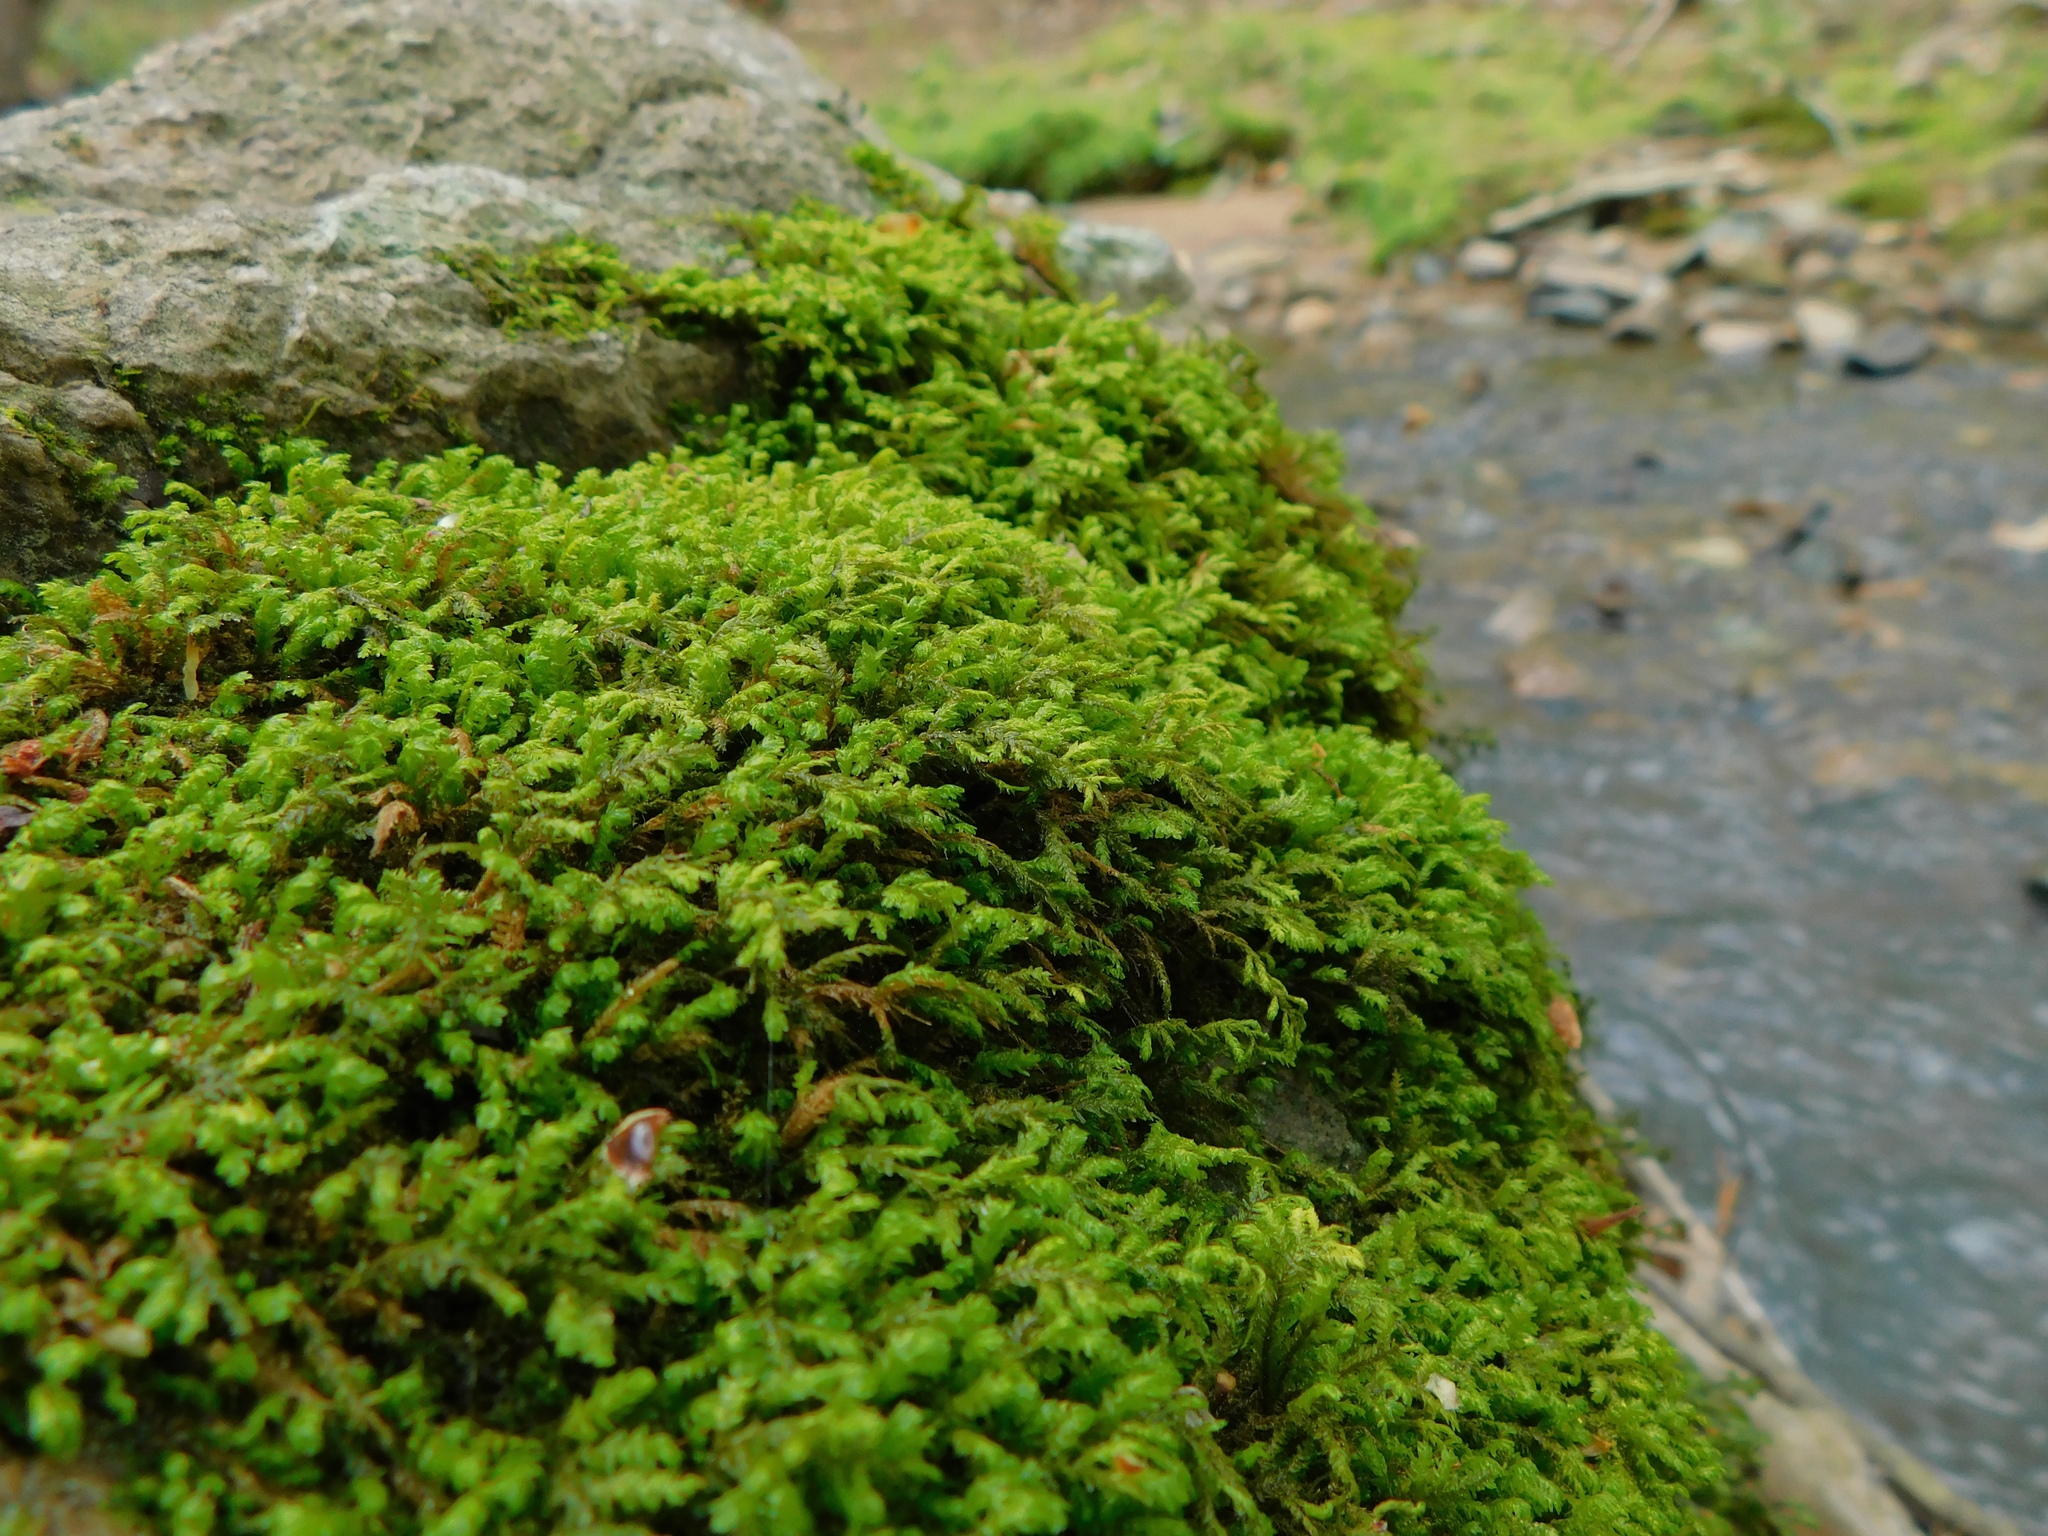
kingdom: Plantae
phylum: Bryophyta
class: Bryopsida
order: Hypnales
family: Anomodontaceae
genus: Anomodontopsis
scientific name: Anomodontopsis rugelii
